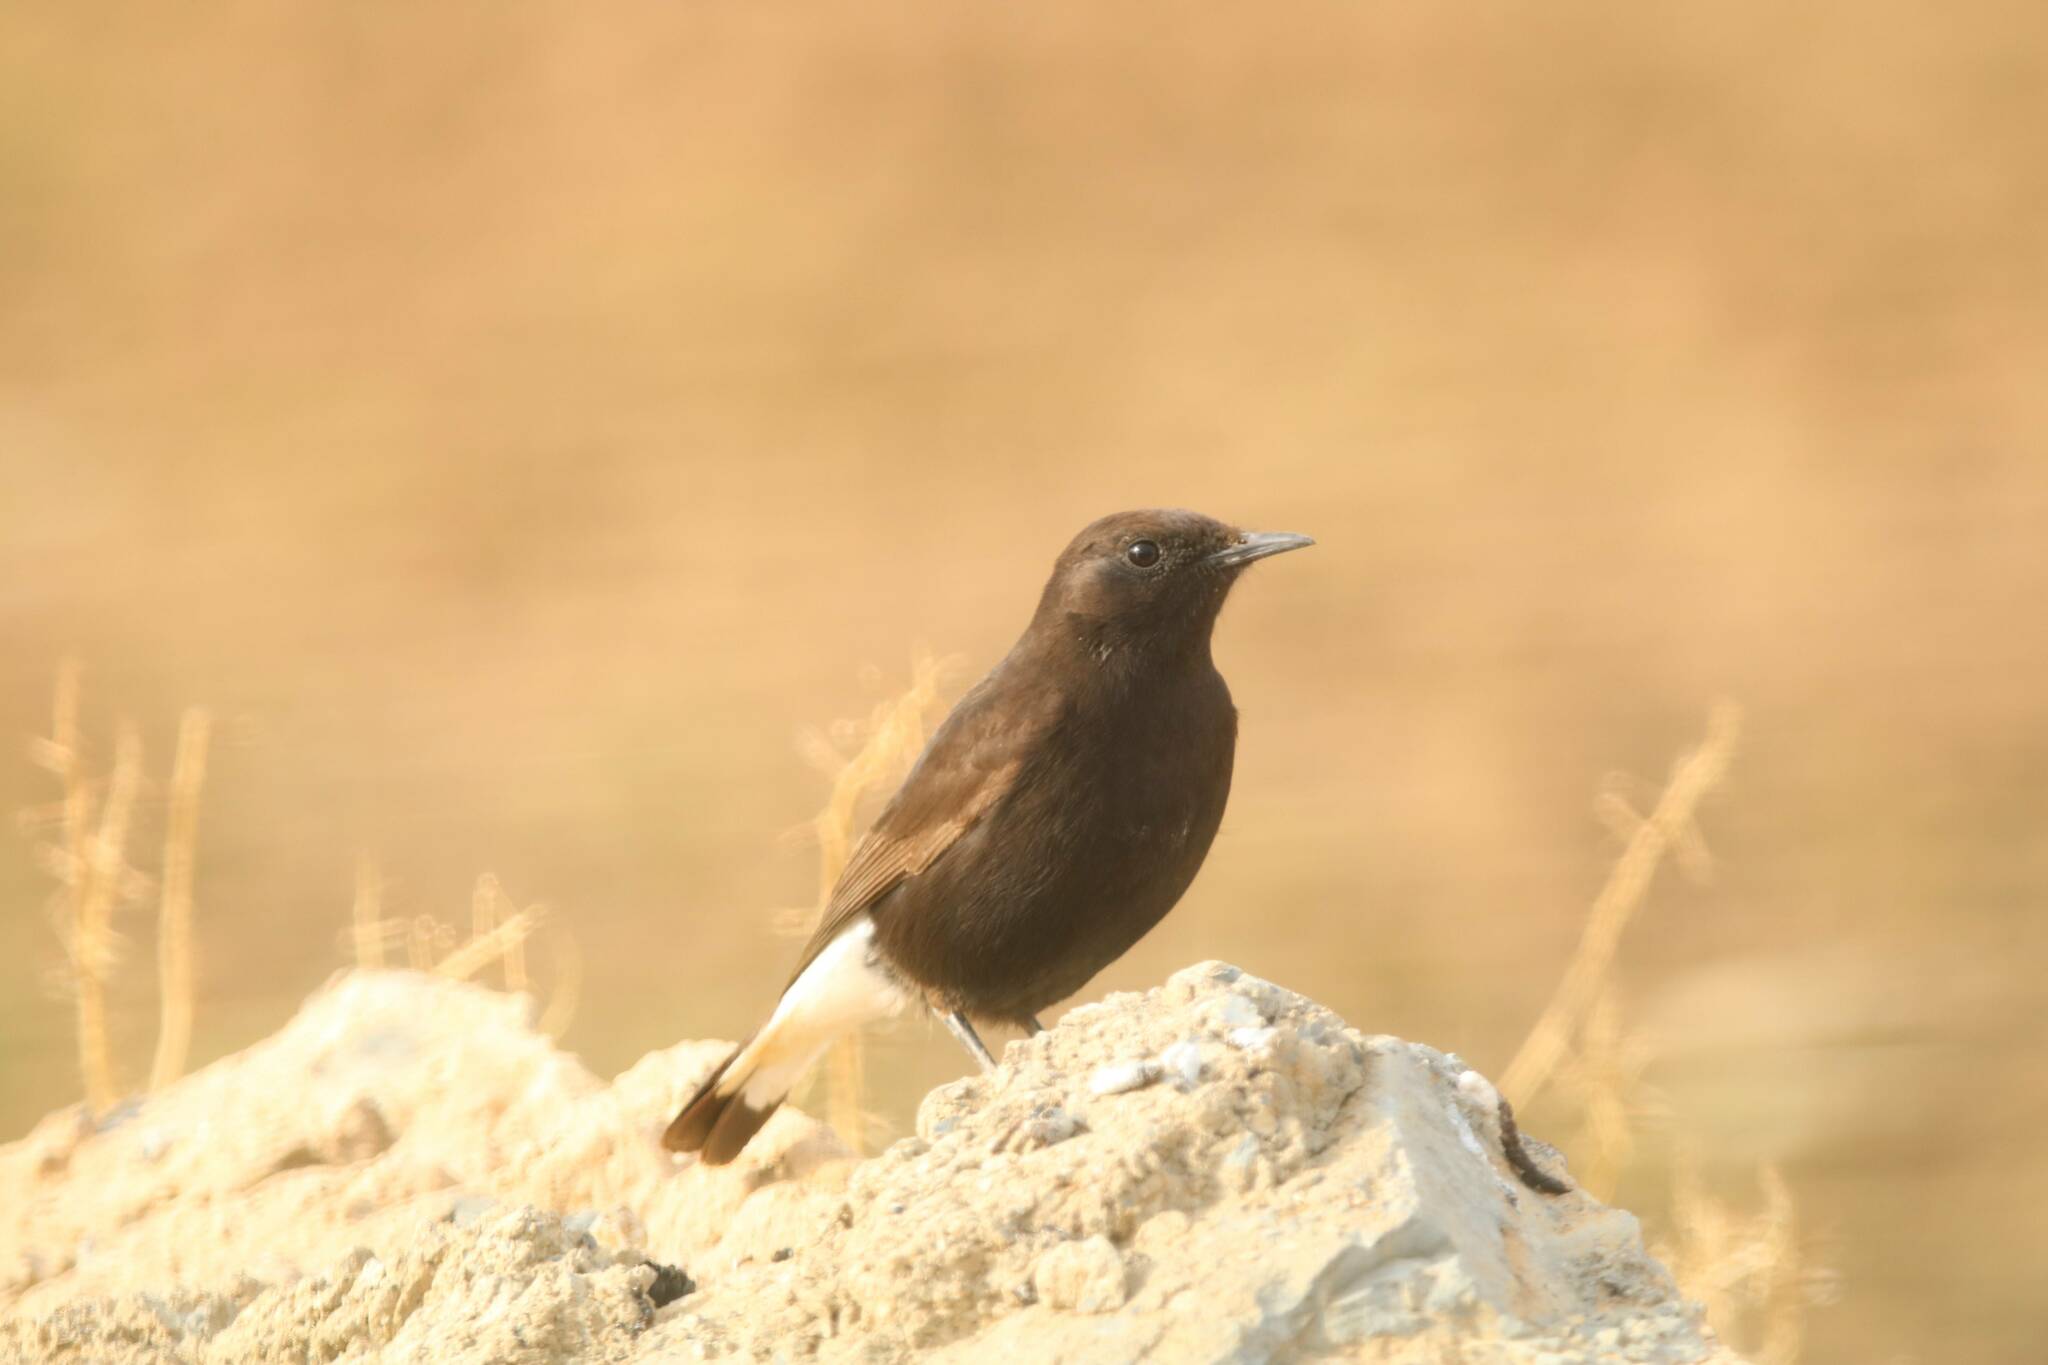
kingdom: Animalia
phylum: Chordata
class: Aves
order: Passeriformes
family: Muscicapidae
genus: Oenanthe
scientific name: Oenanthe leucura
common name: Black wheatear
